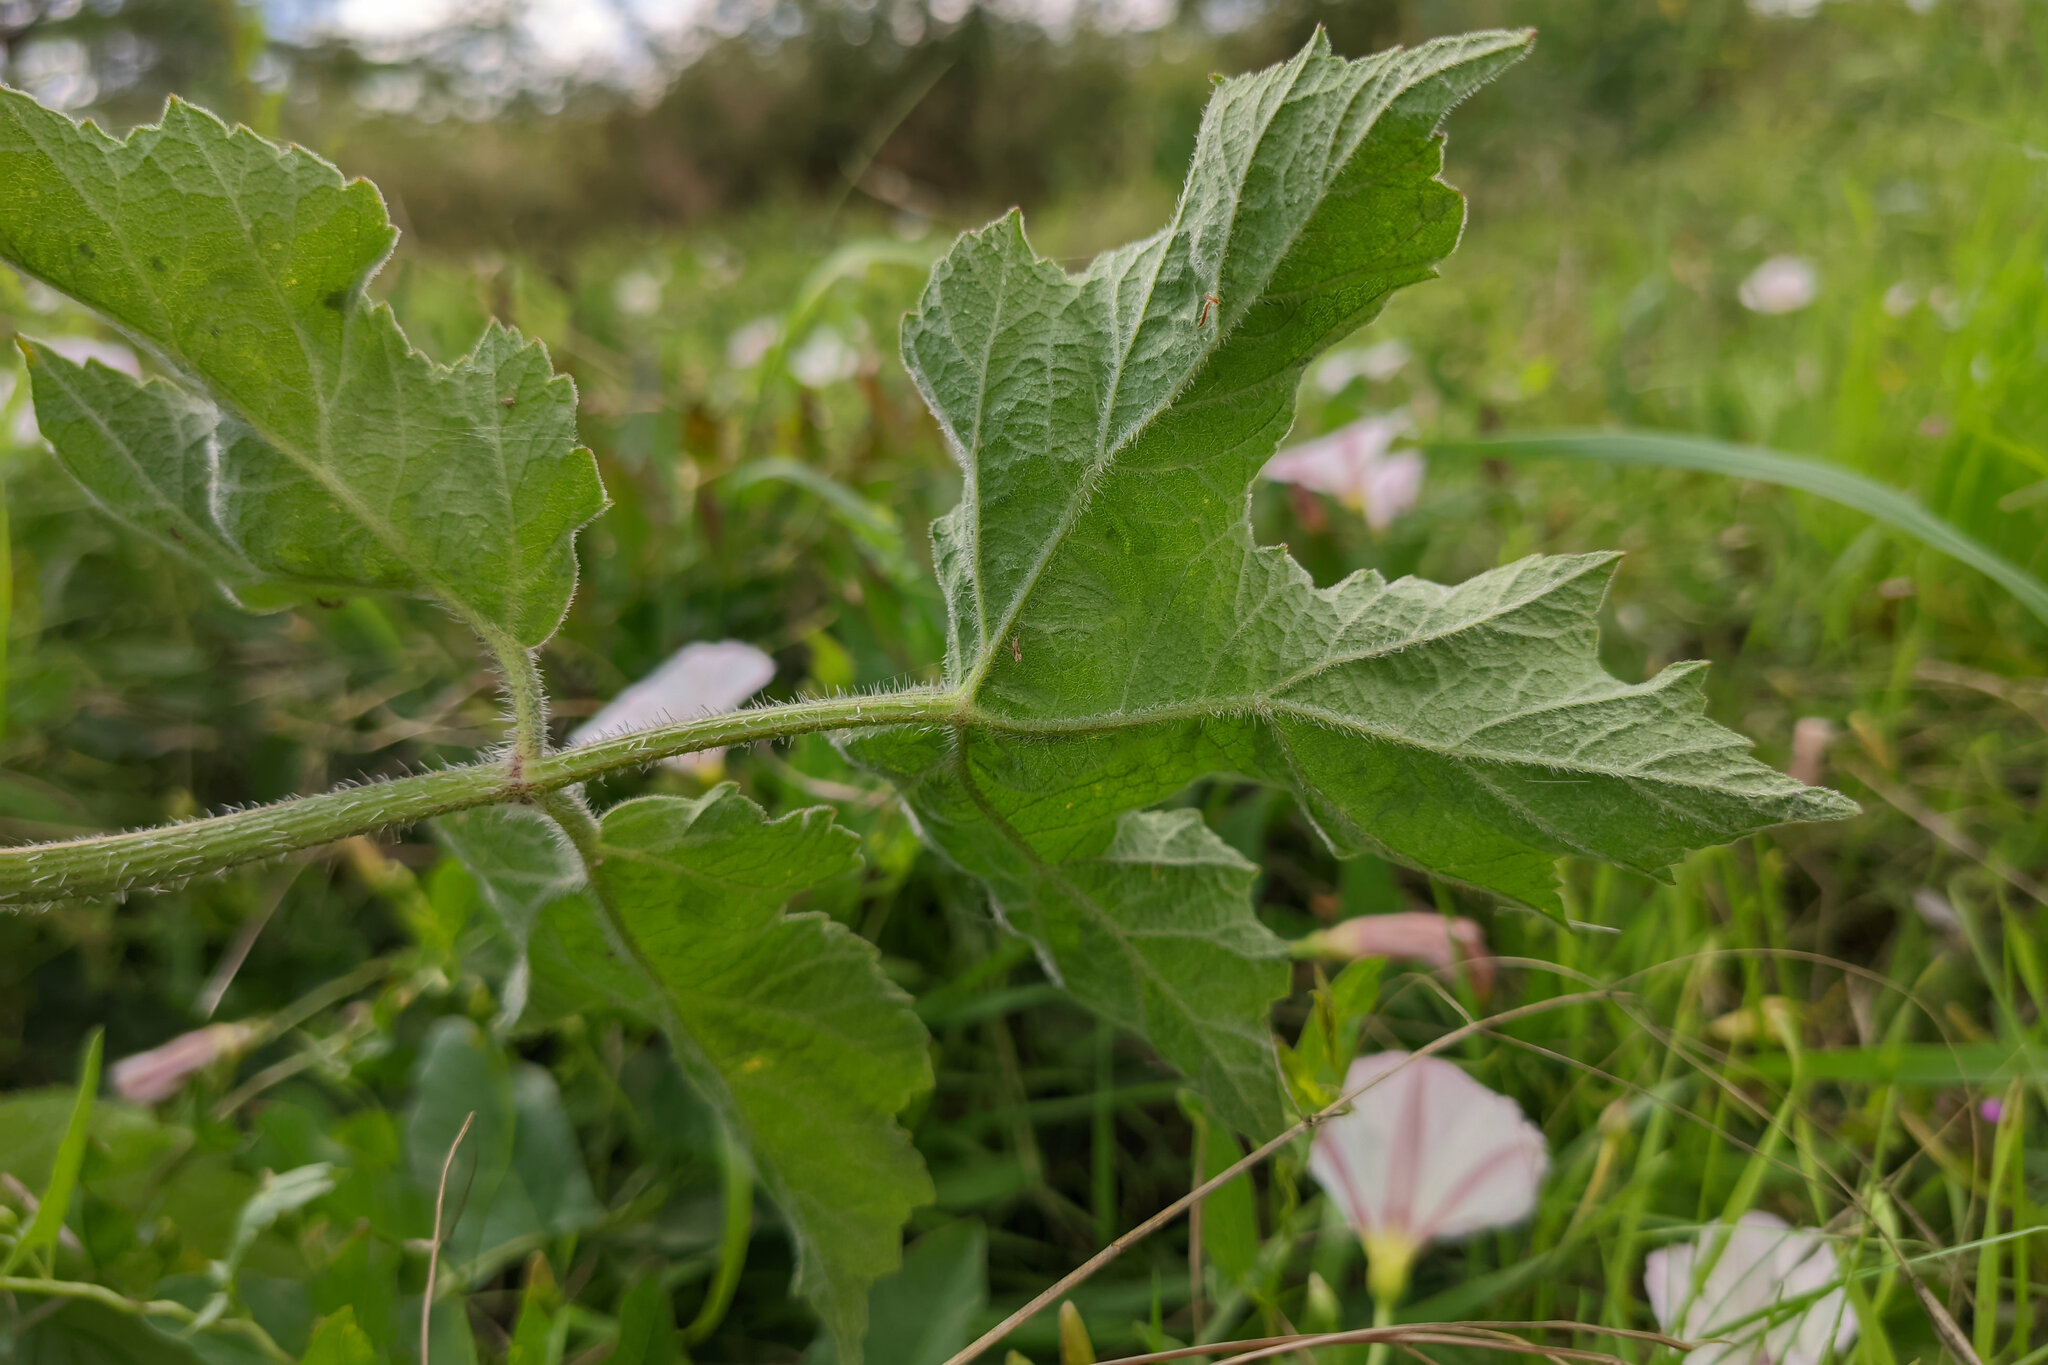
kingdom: Plantae
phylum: Tracheophyta
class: Magnoliopsida
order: Apiales
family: Apiaceae
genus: Heracleum
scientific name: Heracleum sphondylium
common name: Hogweed
